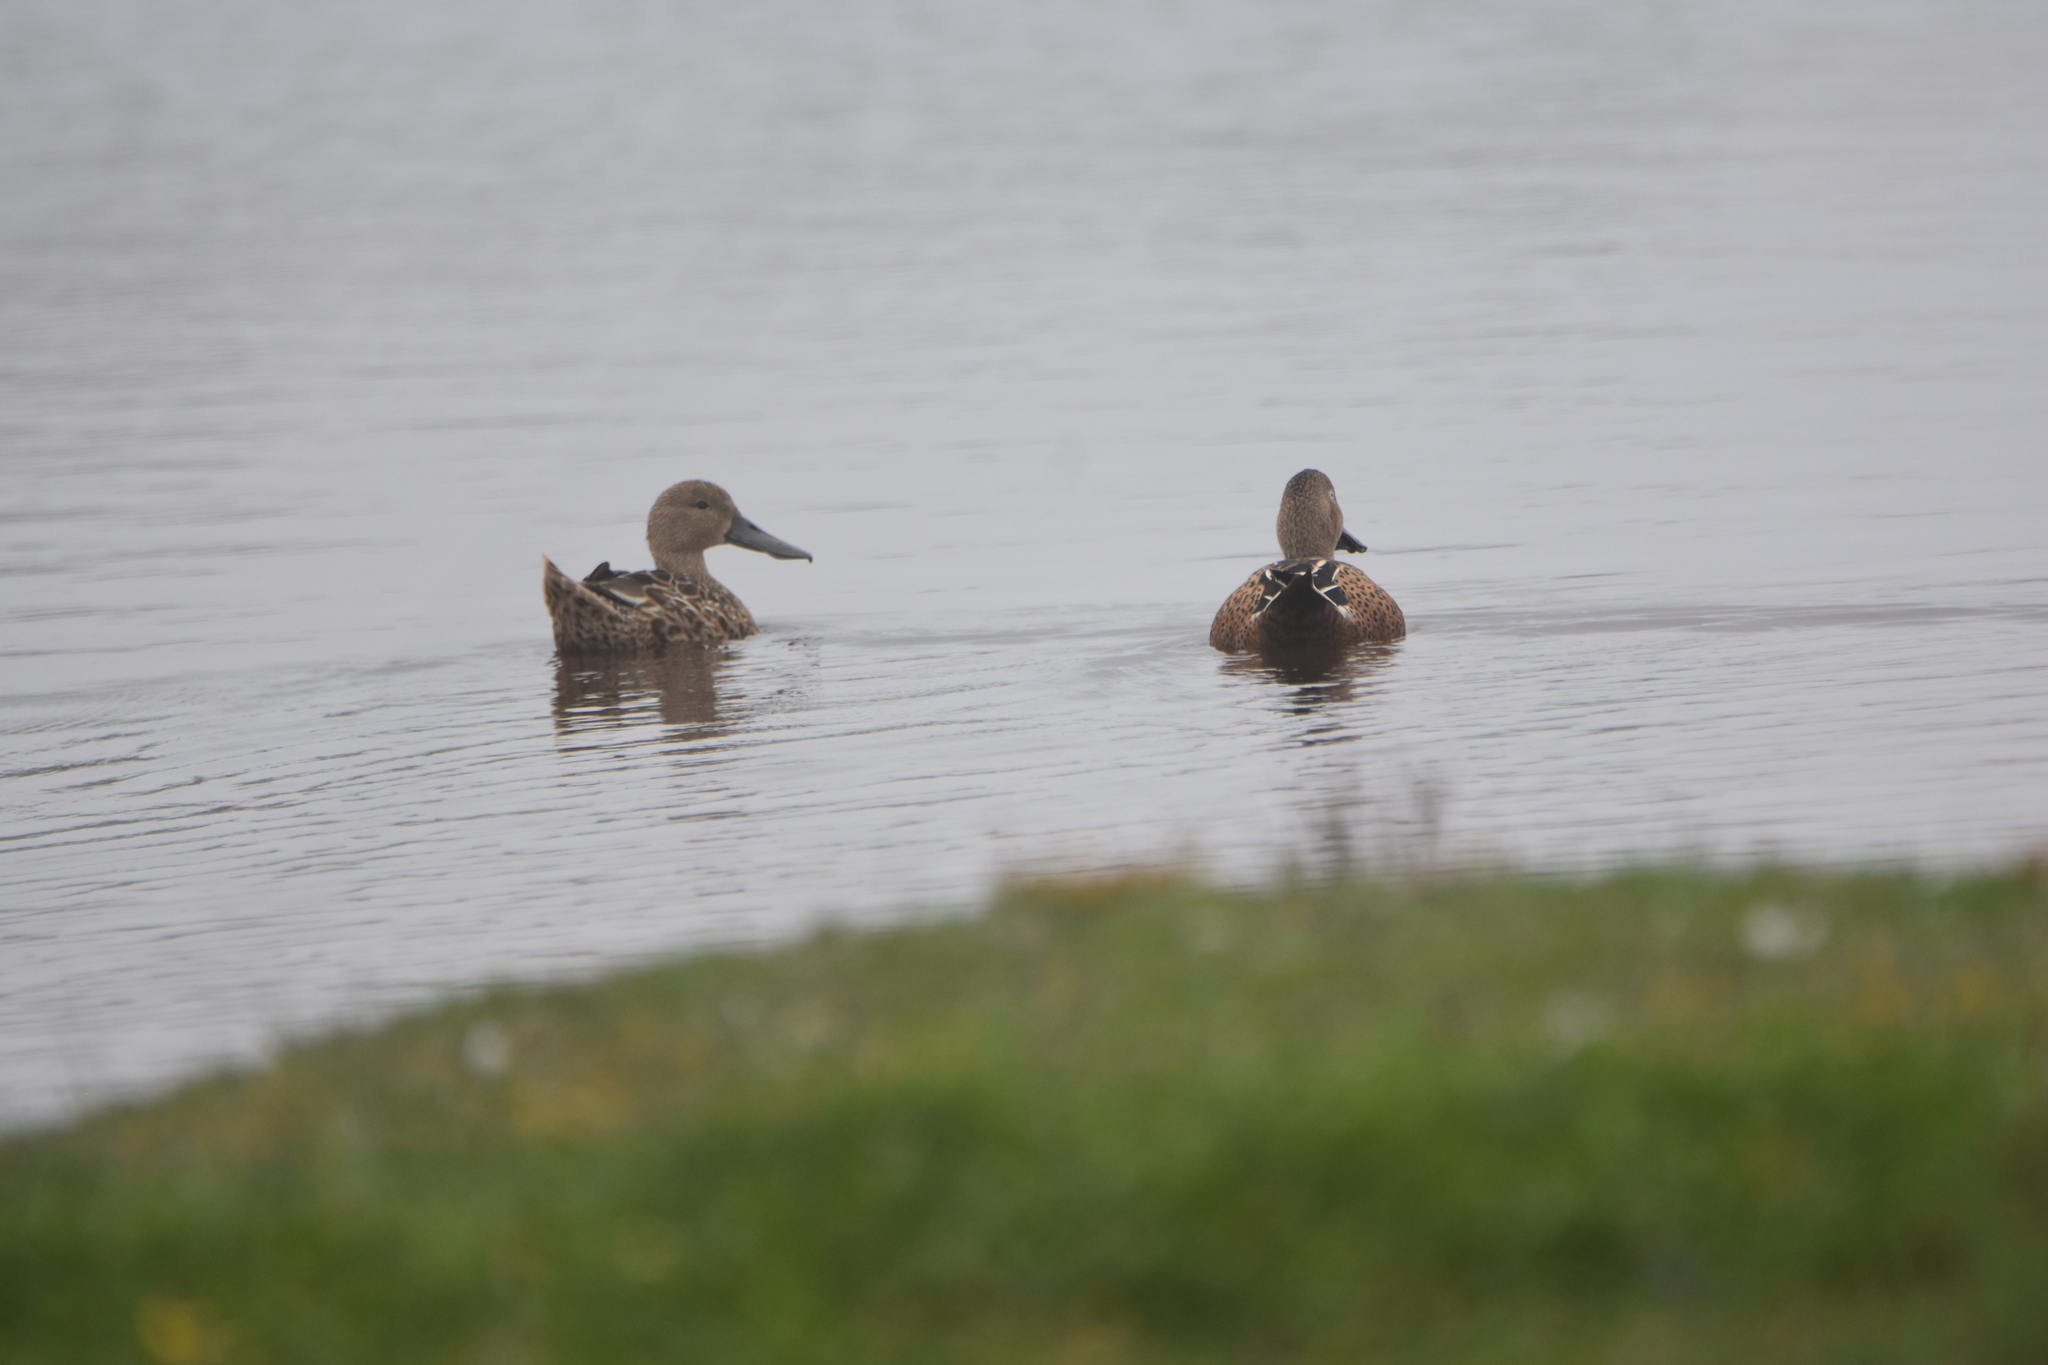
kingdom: Animalia
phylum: Chordata
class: Aves
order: Anseriformes
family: Anatidae
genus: Spatula
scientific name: Spatula platalea
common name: Red shoveler
